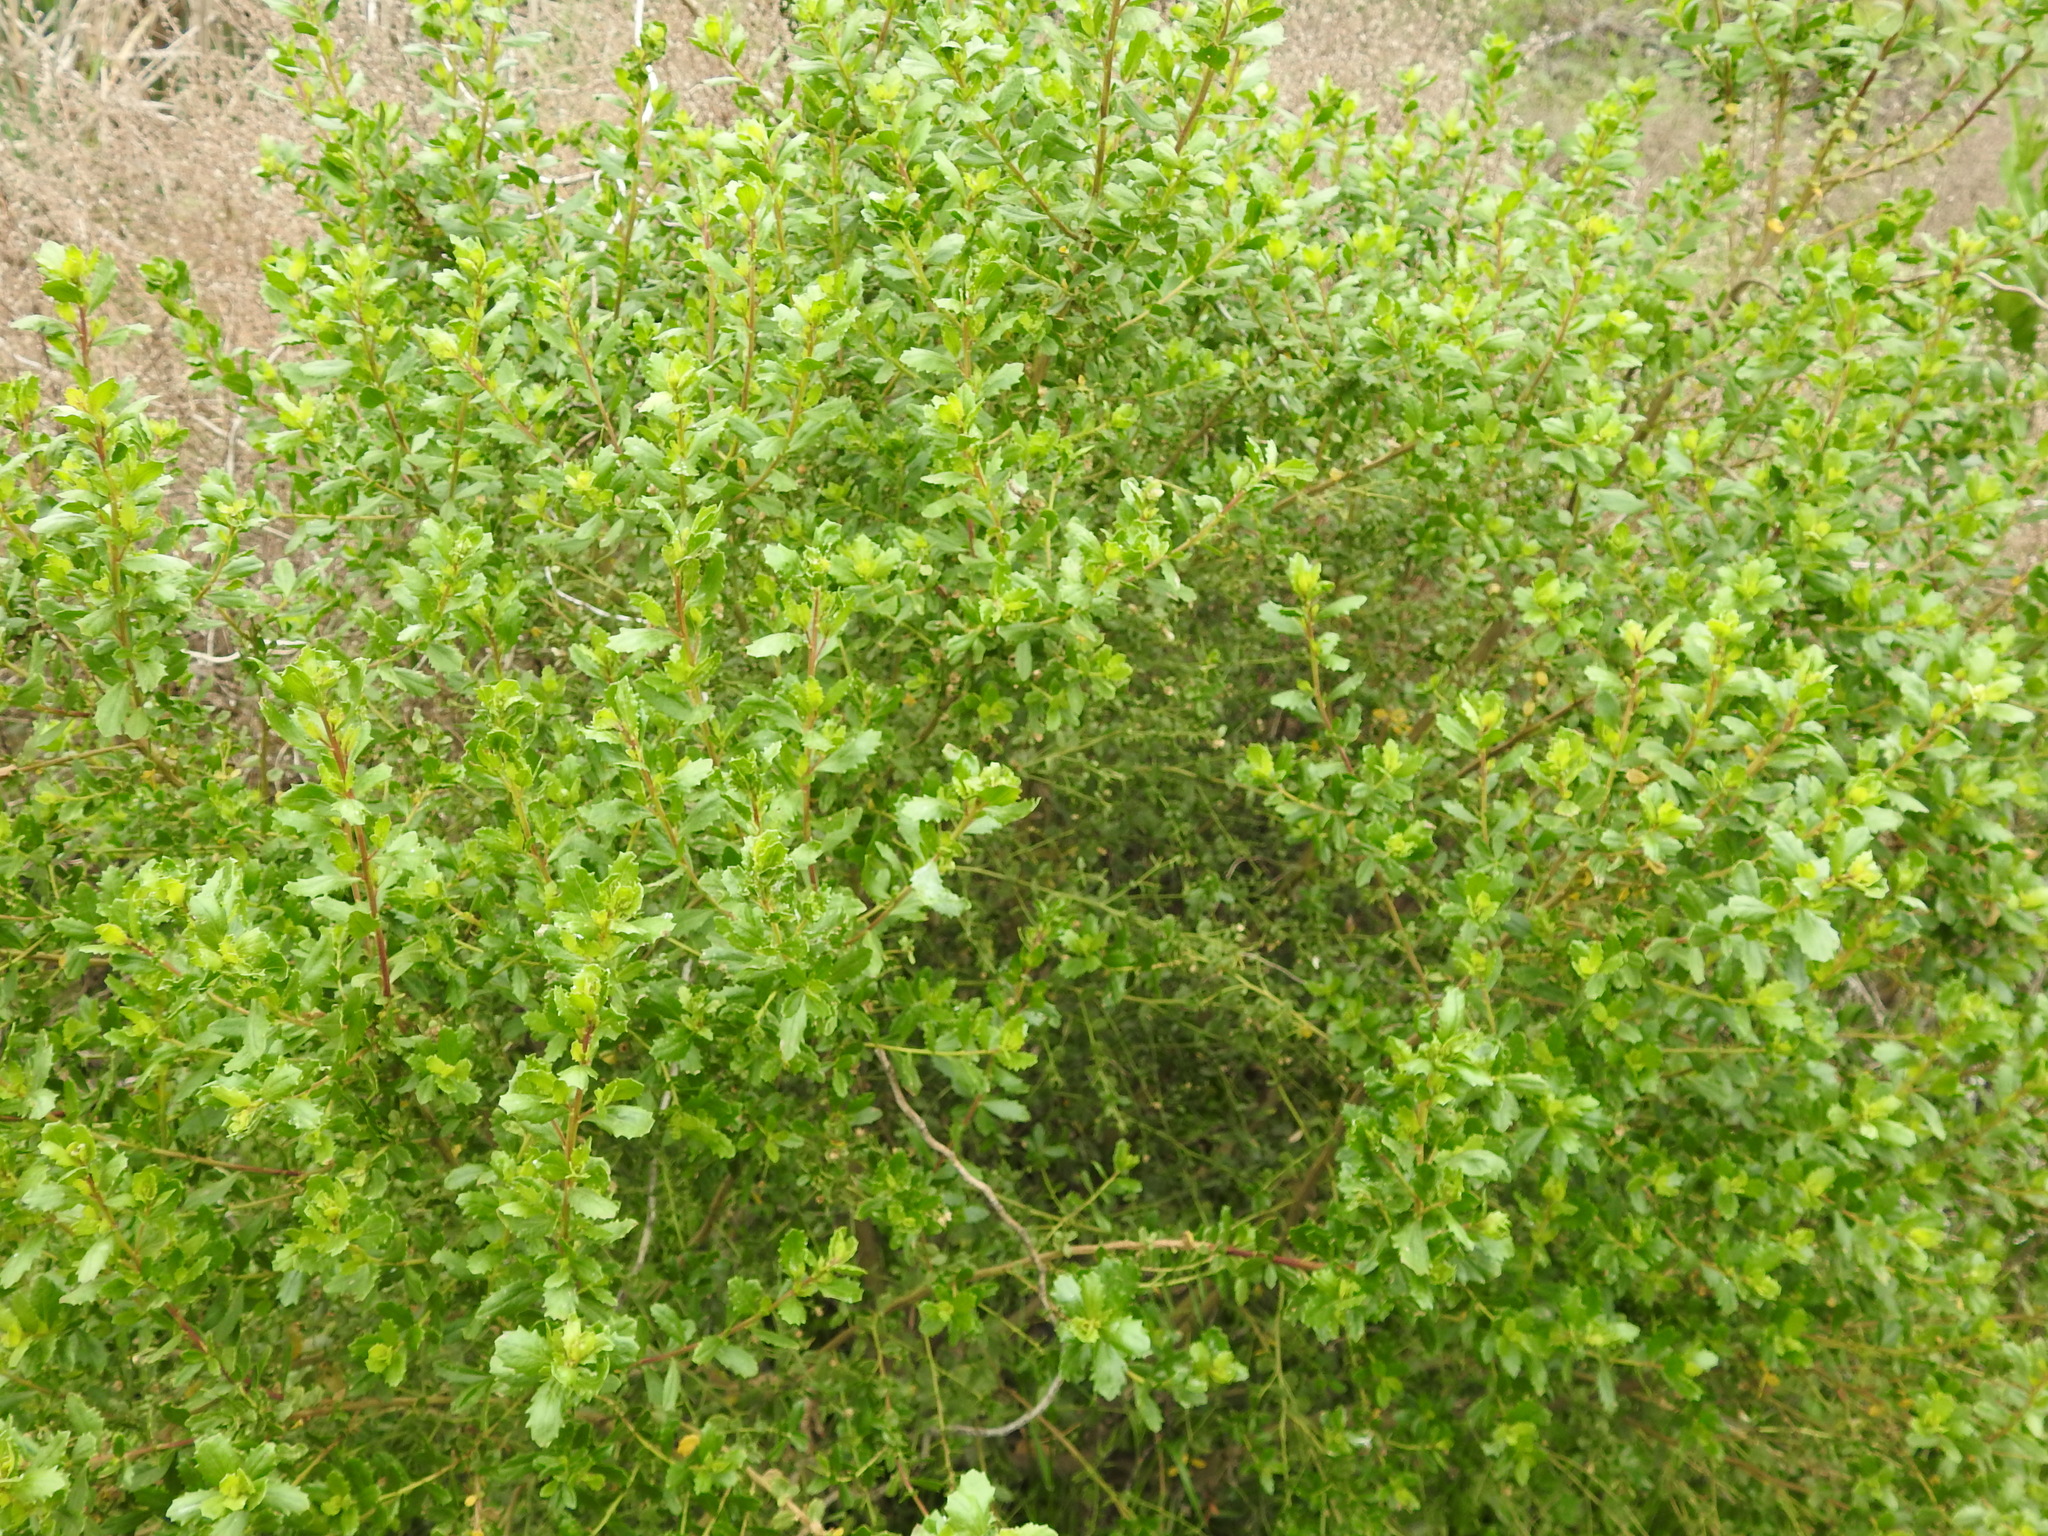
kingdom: Plantae
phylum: Tracheophyta
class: Magnoliopsida
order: Asterales
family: Asteraceae
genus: Baccharis
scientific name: Baccharis pilularis
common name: Coyotebrush
